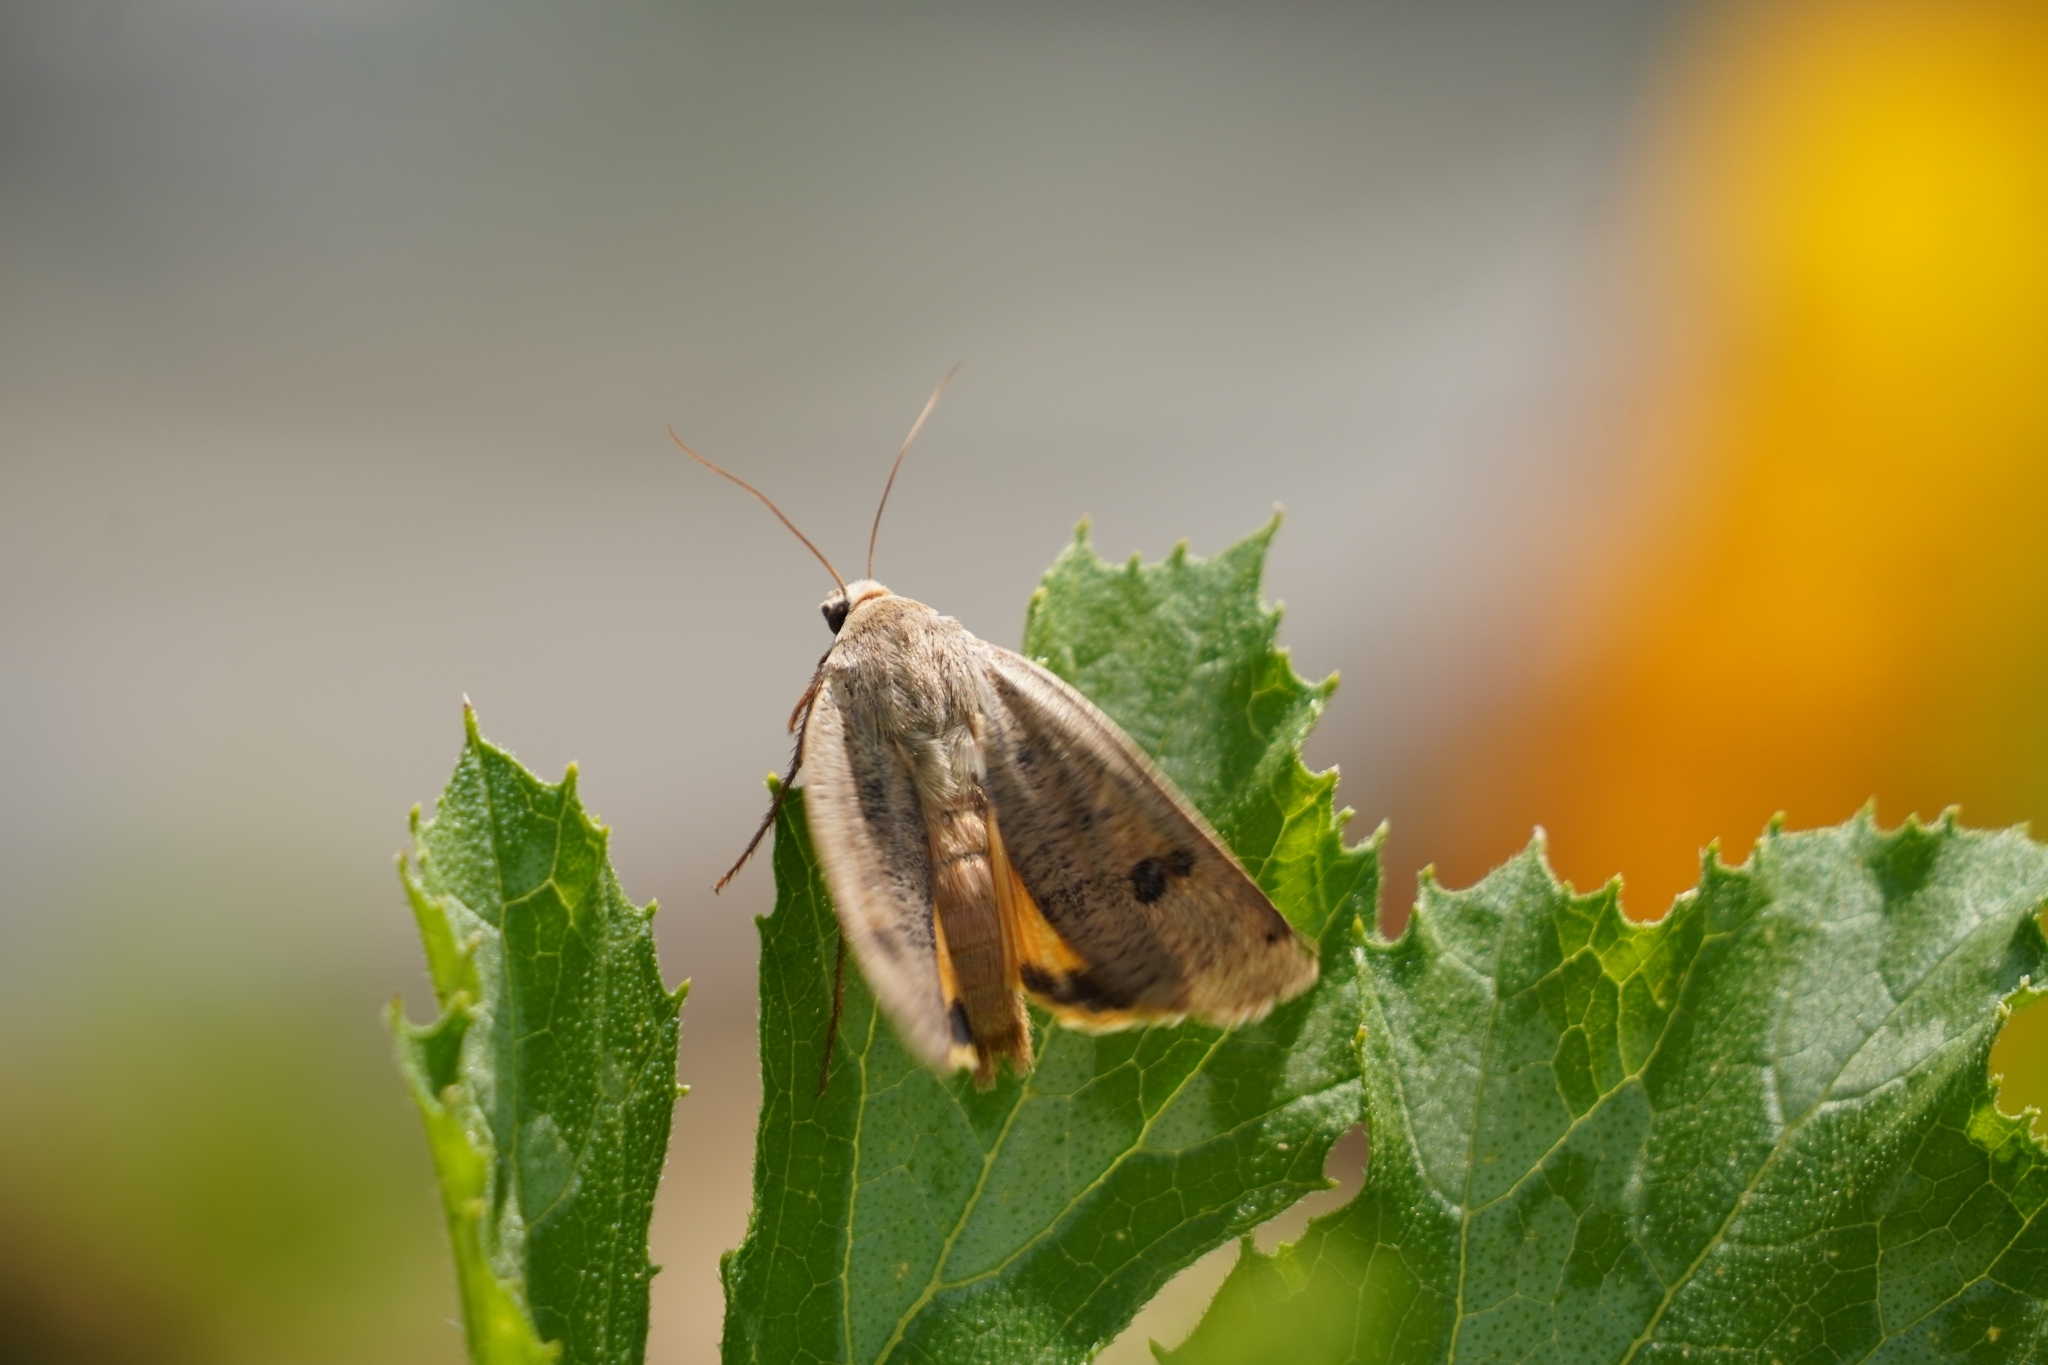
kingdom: Animalia
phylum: Arthropoda
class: Insecta
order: Lepidoptera
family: Noctuidae
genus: Noctua
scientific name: Noctua pronuba
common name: Large yellow underwing
